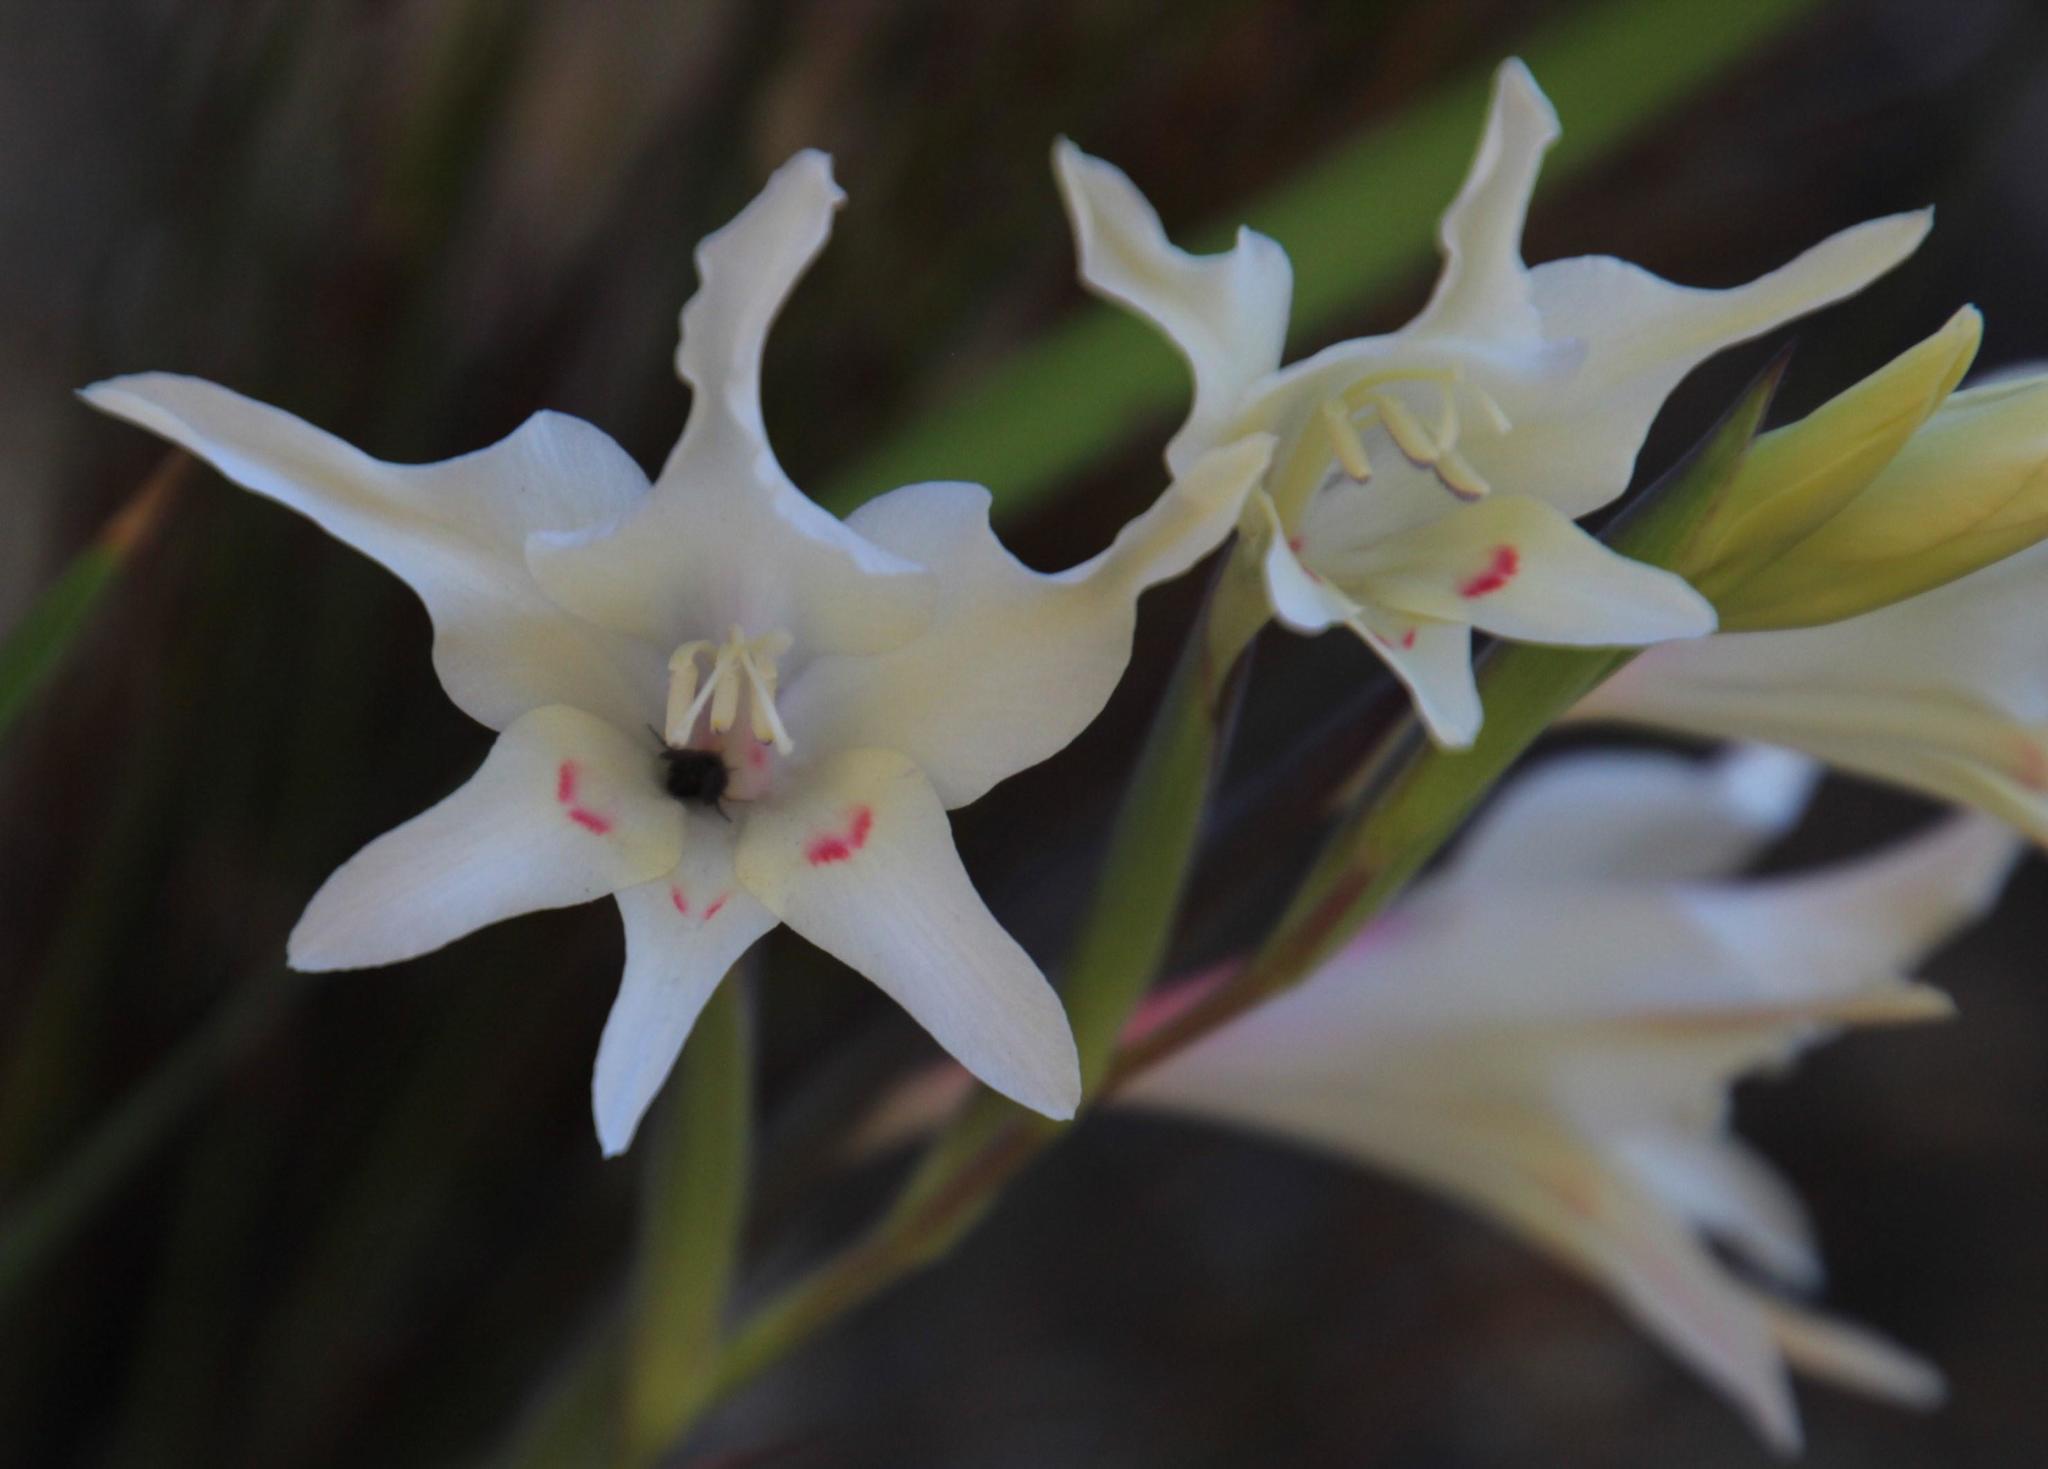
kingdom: Plantae
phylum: Tracheophyta
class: Liliopsida
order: Asparagales
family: Iridaceae
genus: Gladiolus
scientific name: Gladiolus carneus
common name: Painted-lady
